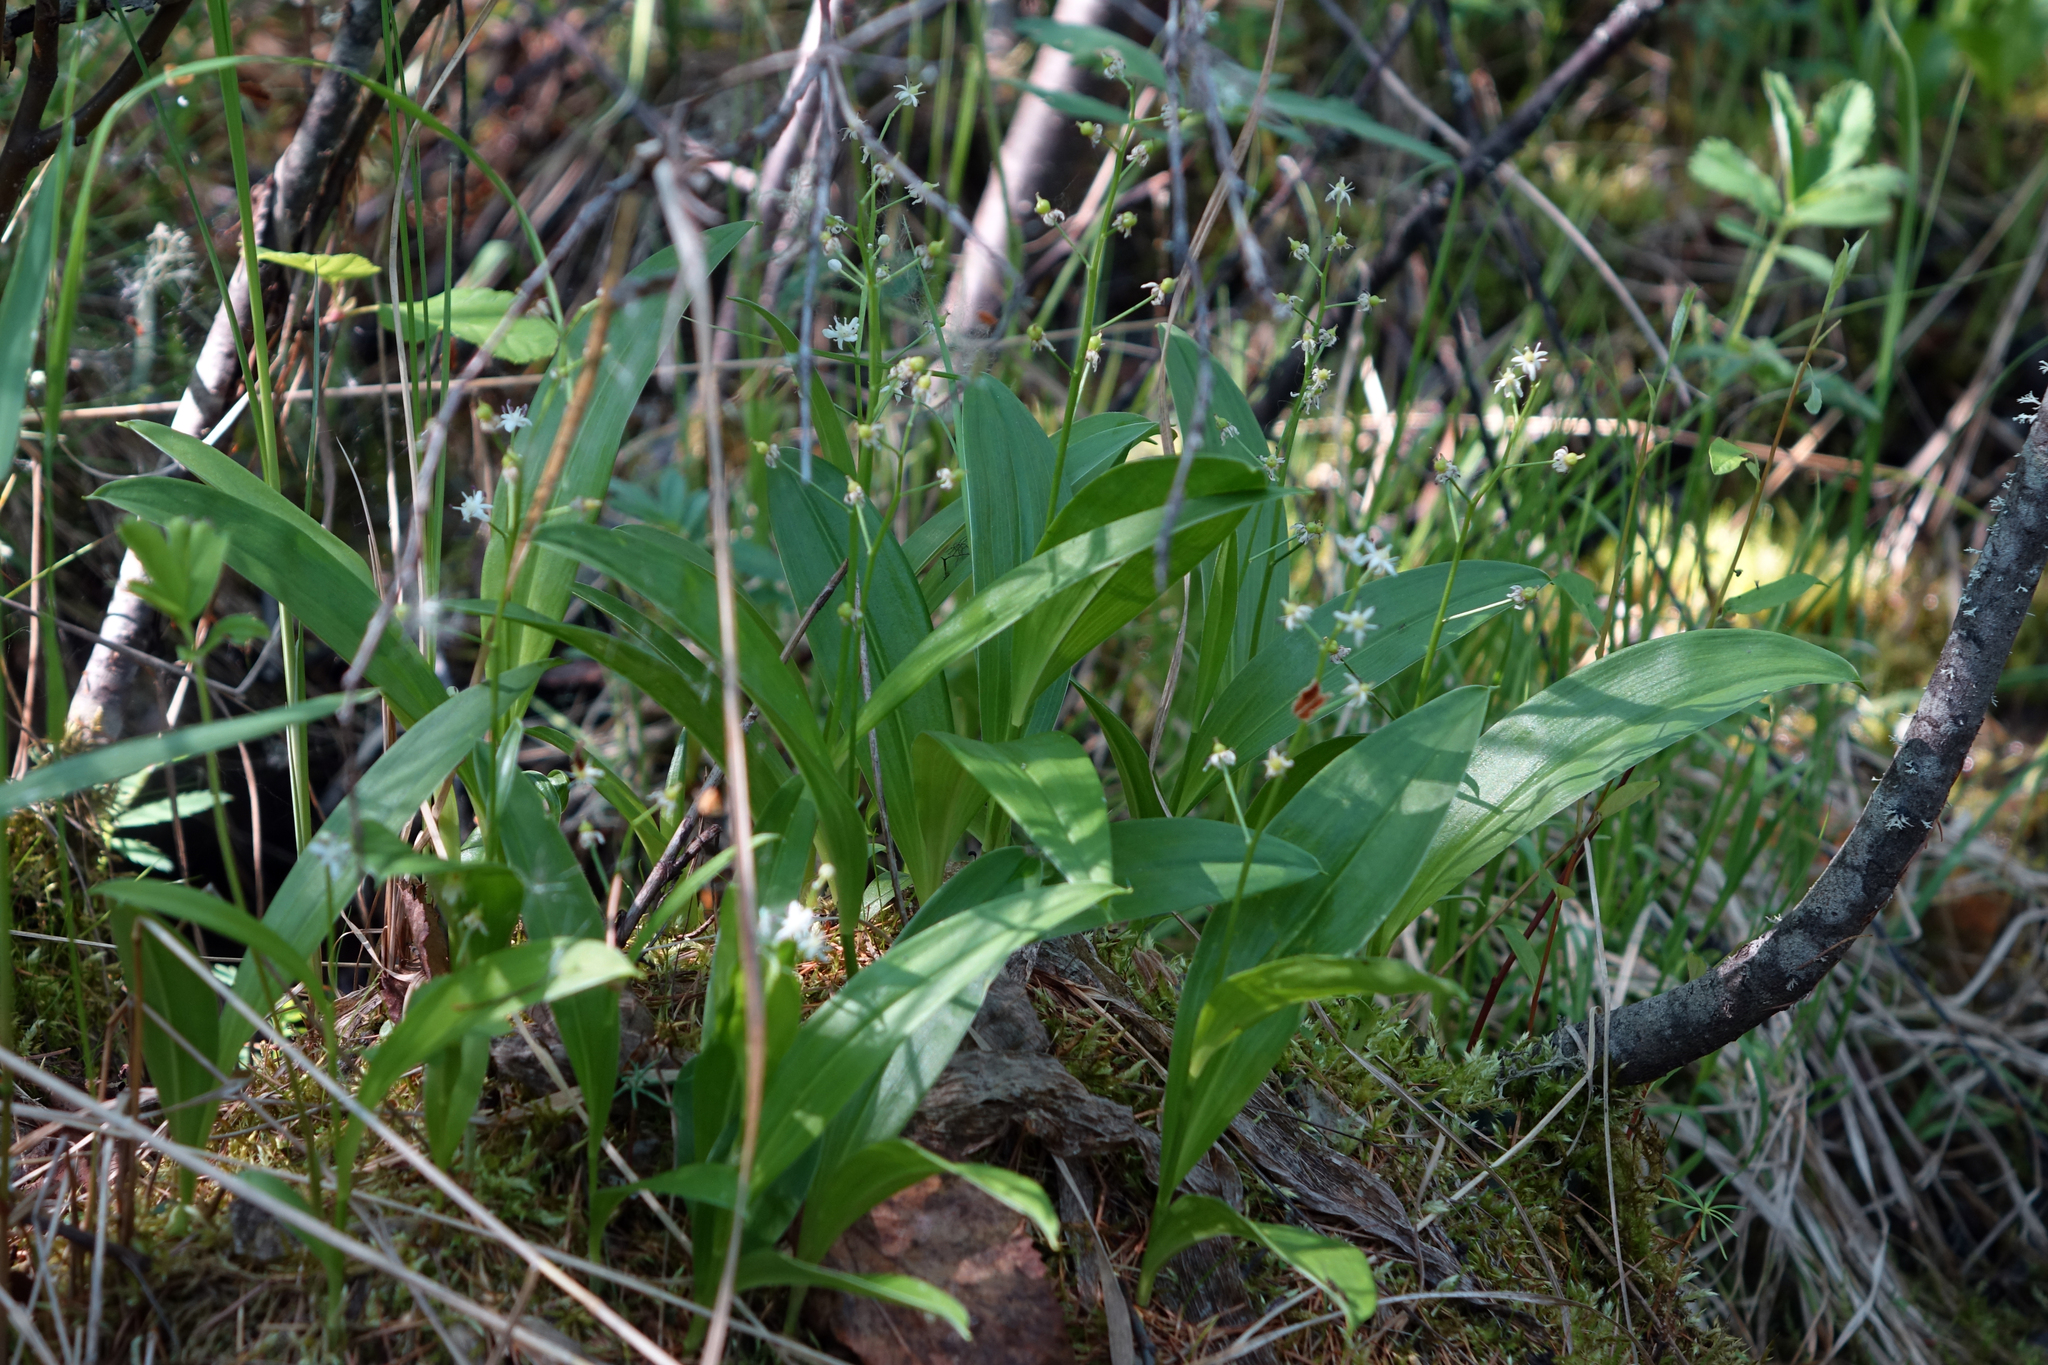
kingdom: Plantae
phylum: Tracheophyta
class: Liliopsida
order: Asparagales
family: Asparagaceae
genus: Maianthemum
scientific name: Maianthemum trifolium
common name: Swamp false solomon's seal
